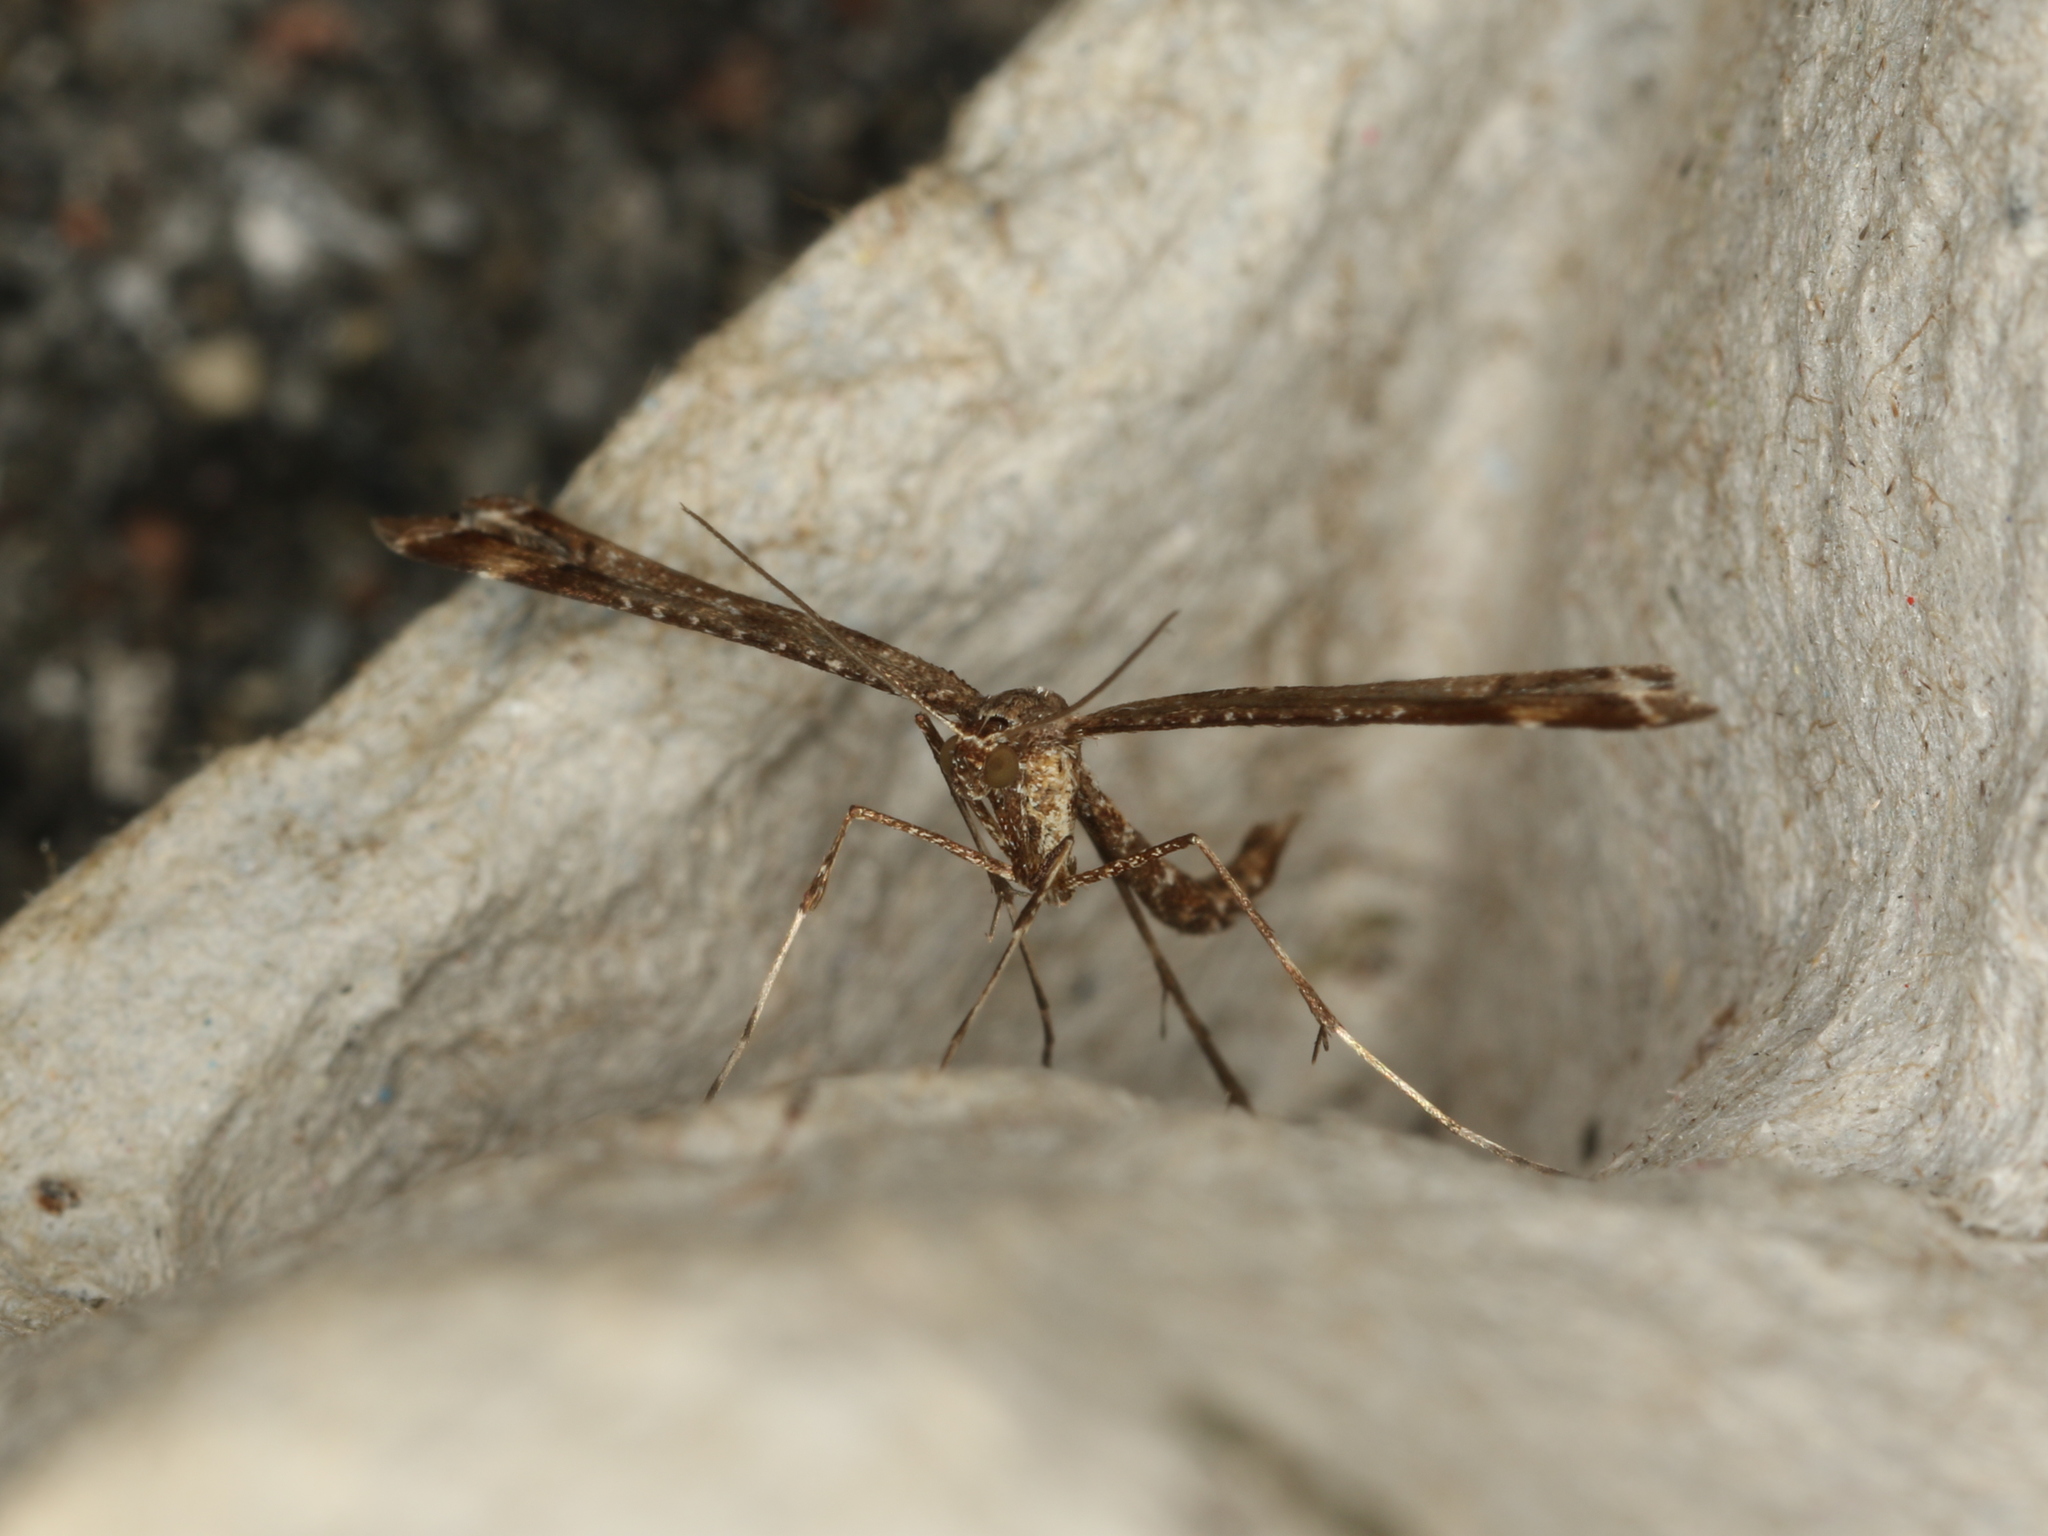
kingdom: Animalia
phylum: Arthropoda
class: Insecta
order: Lepidoptera
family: Pterophoridae
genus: Amblyptilia
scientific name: Amblyptilia acanthadactyla
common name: Beautiful plume
